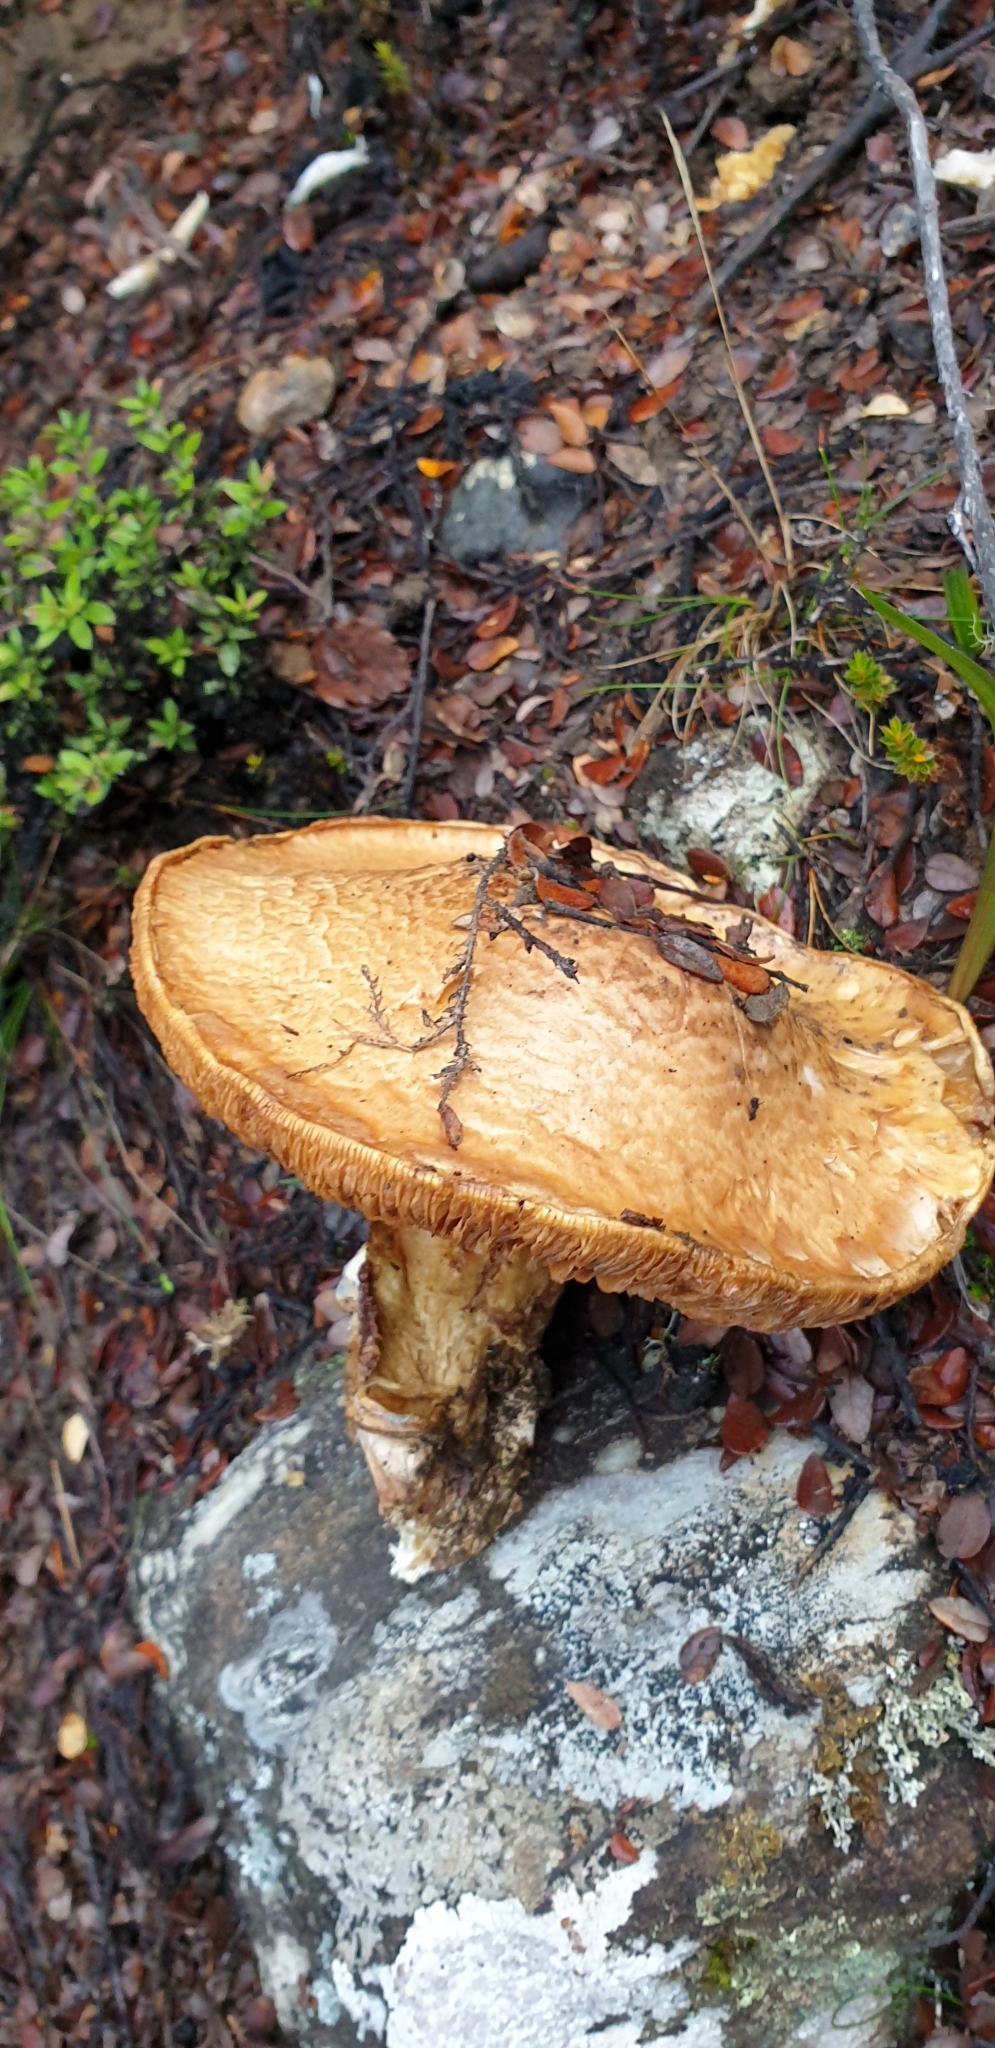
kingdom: Fungi
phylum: Basidiomycota
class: Agaricomycetes
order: Agaricales
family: Cortinariaceae
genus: Austrocortinarius
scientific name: Austrocortinarius australiensis
